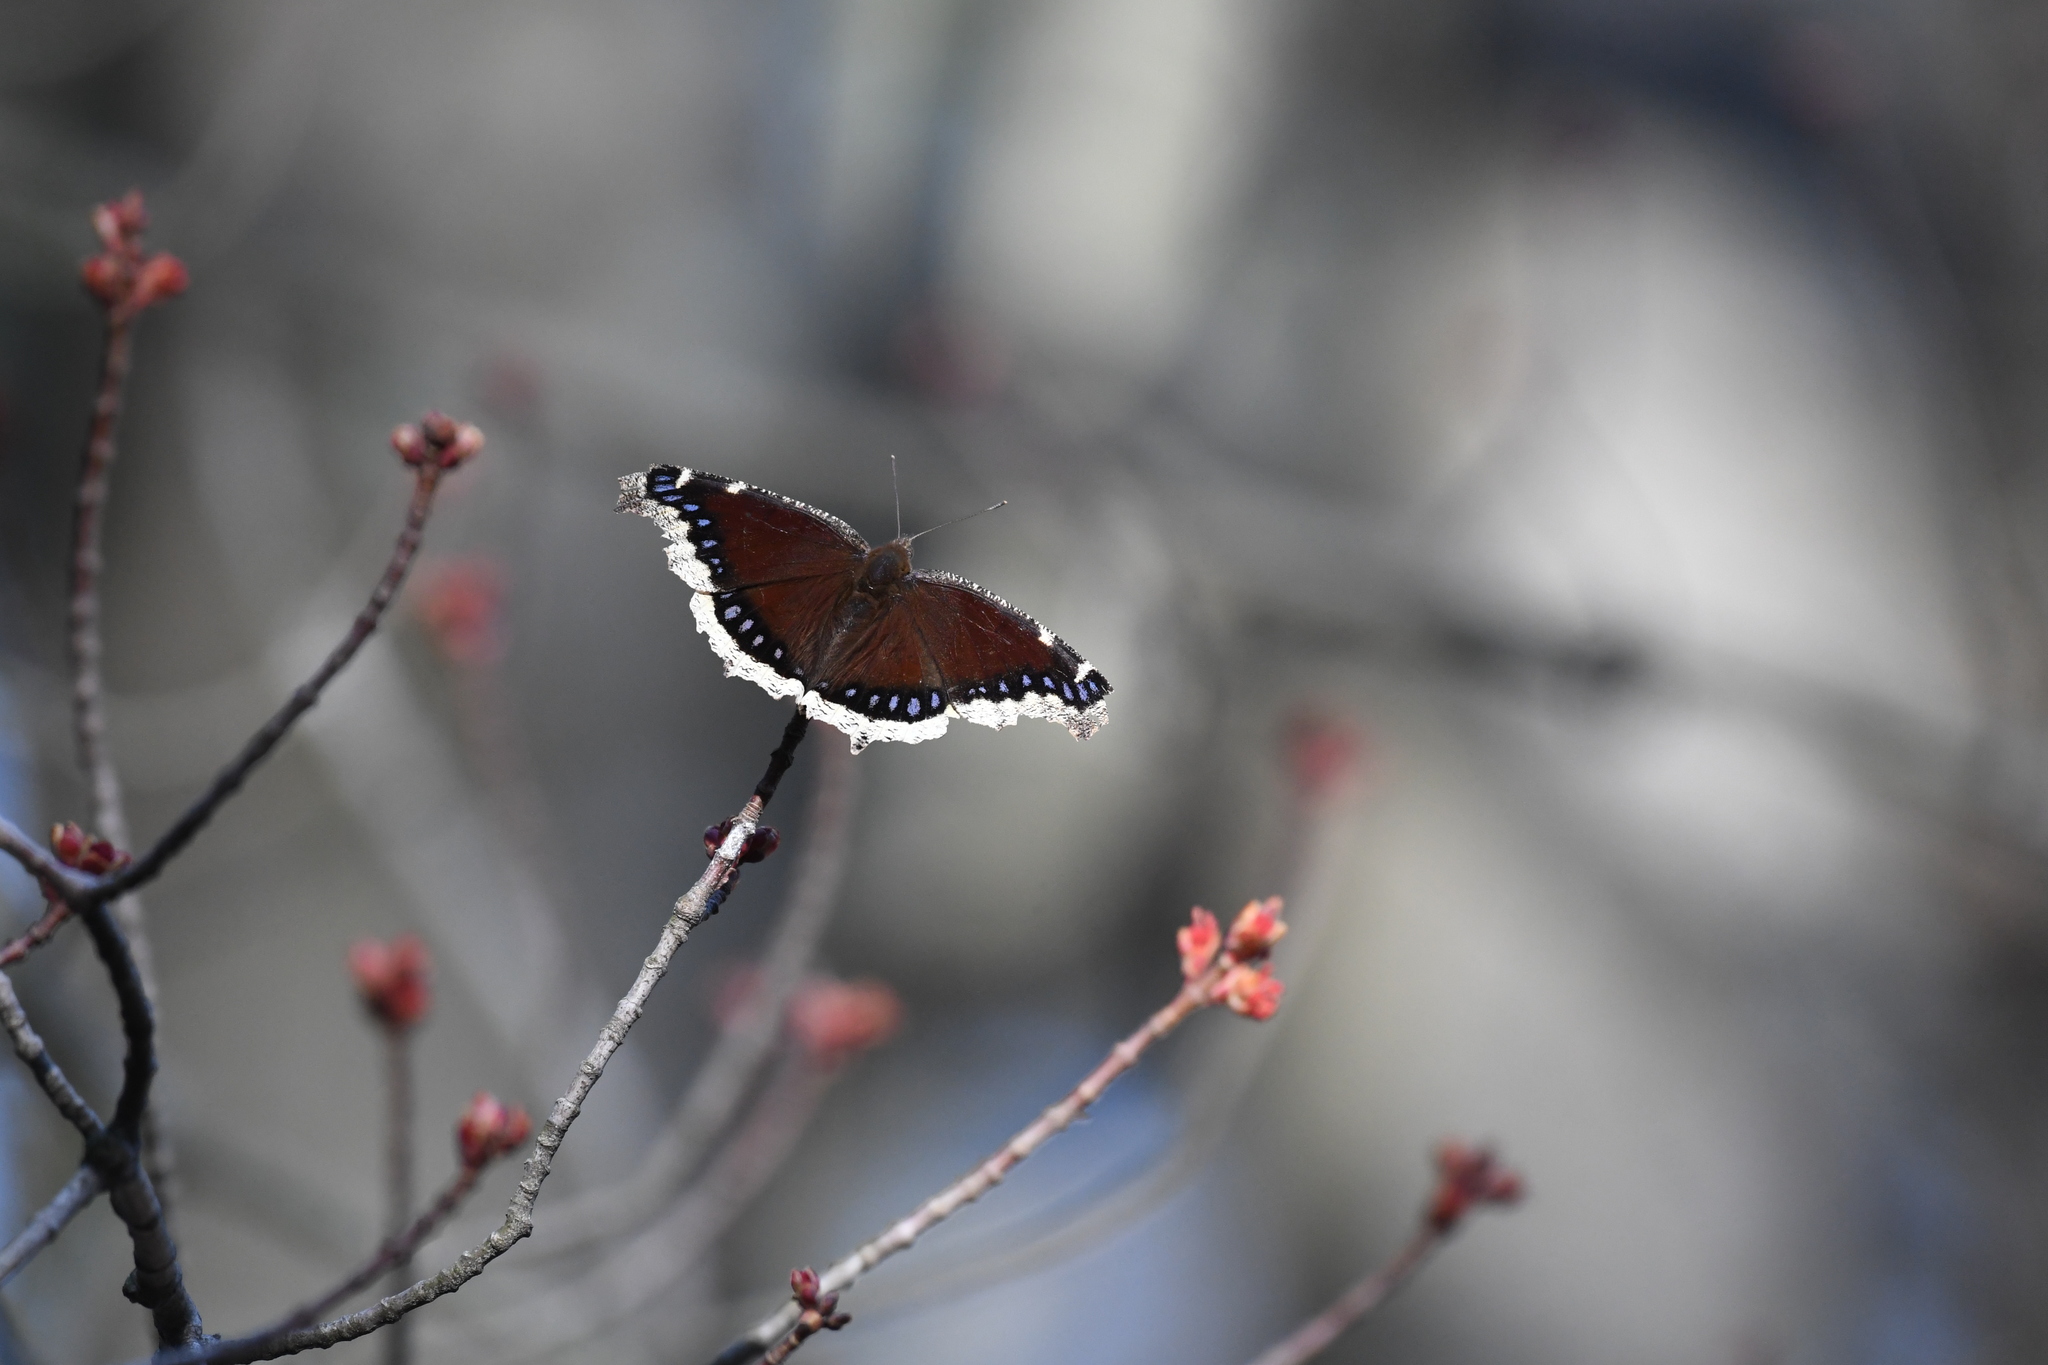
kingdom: Animalia
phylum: Arthropoda
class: Insecta
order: Lepidoptera
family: Nymphalidae
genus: Nymphalis
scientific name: Nymphalis antiopa
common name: Camberwell beauty
